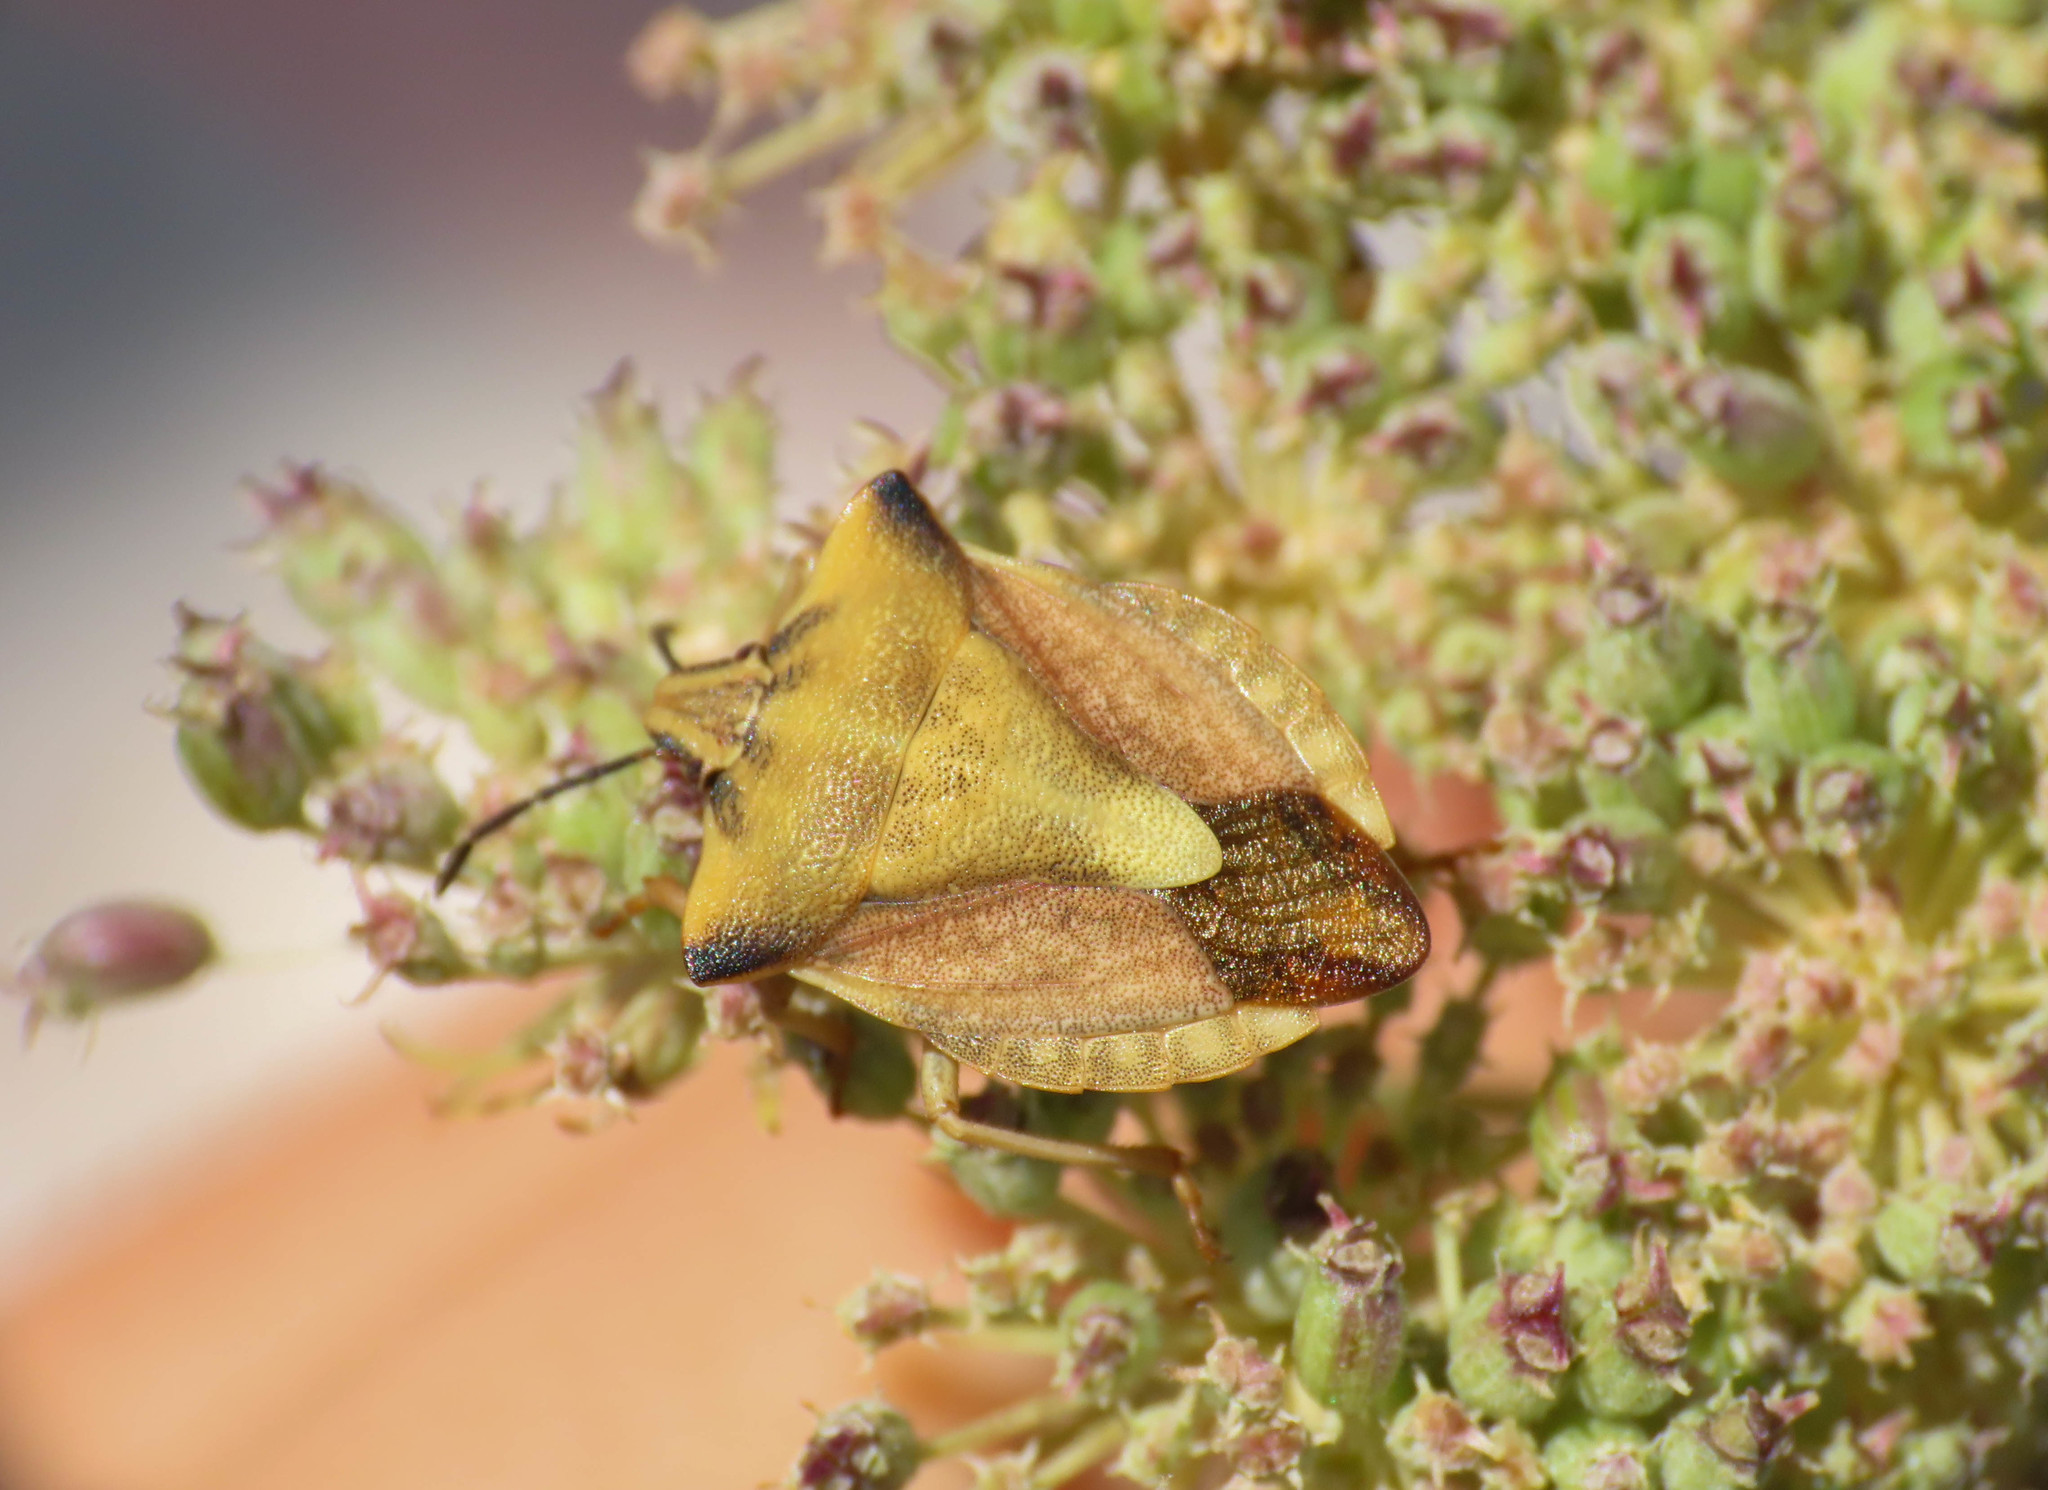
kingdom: Animalia
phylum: Arthropoda
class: Insecta
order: Hemiptera
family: Pentatomidae
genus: Carpocoris
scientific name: Carpocoris fuscispinus
